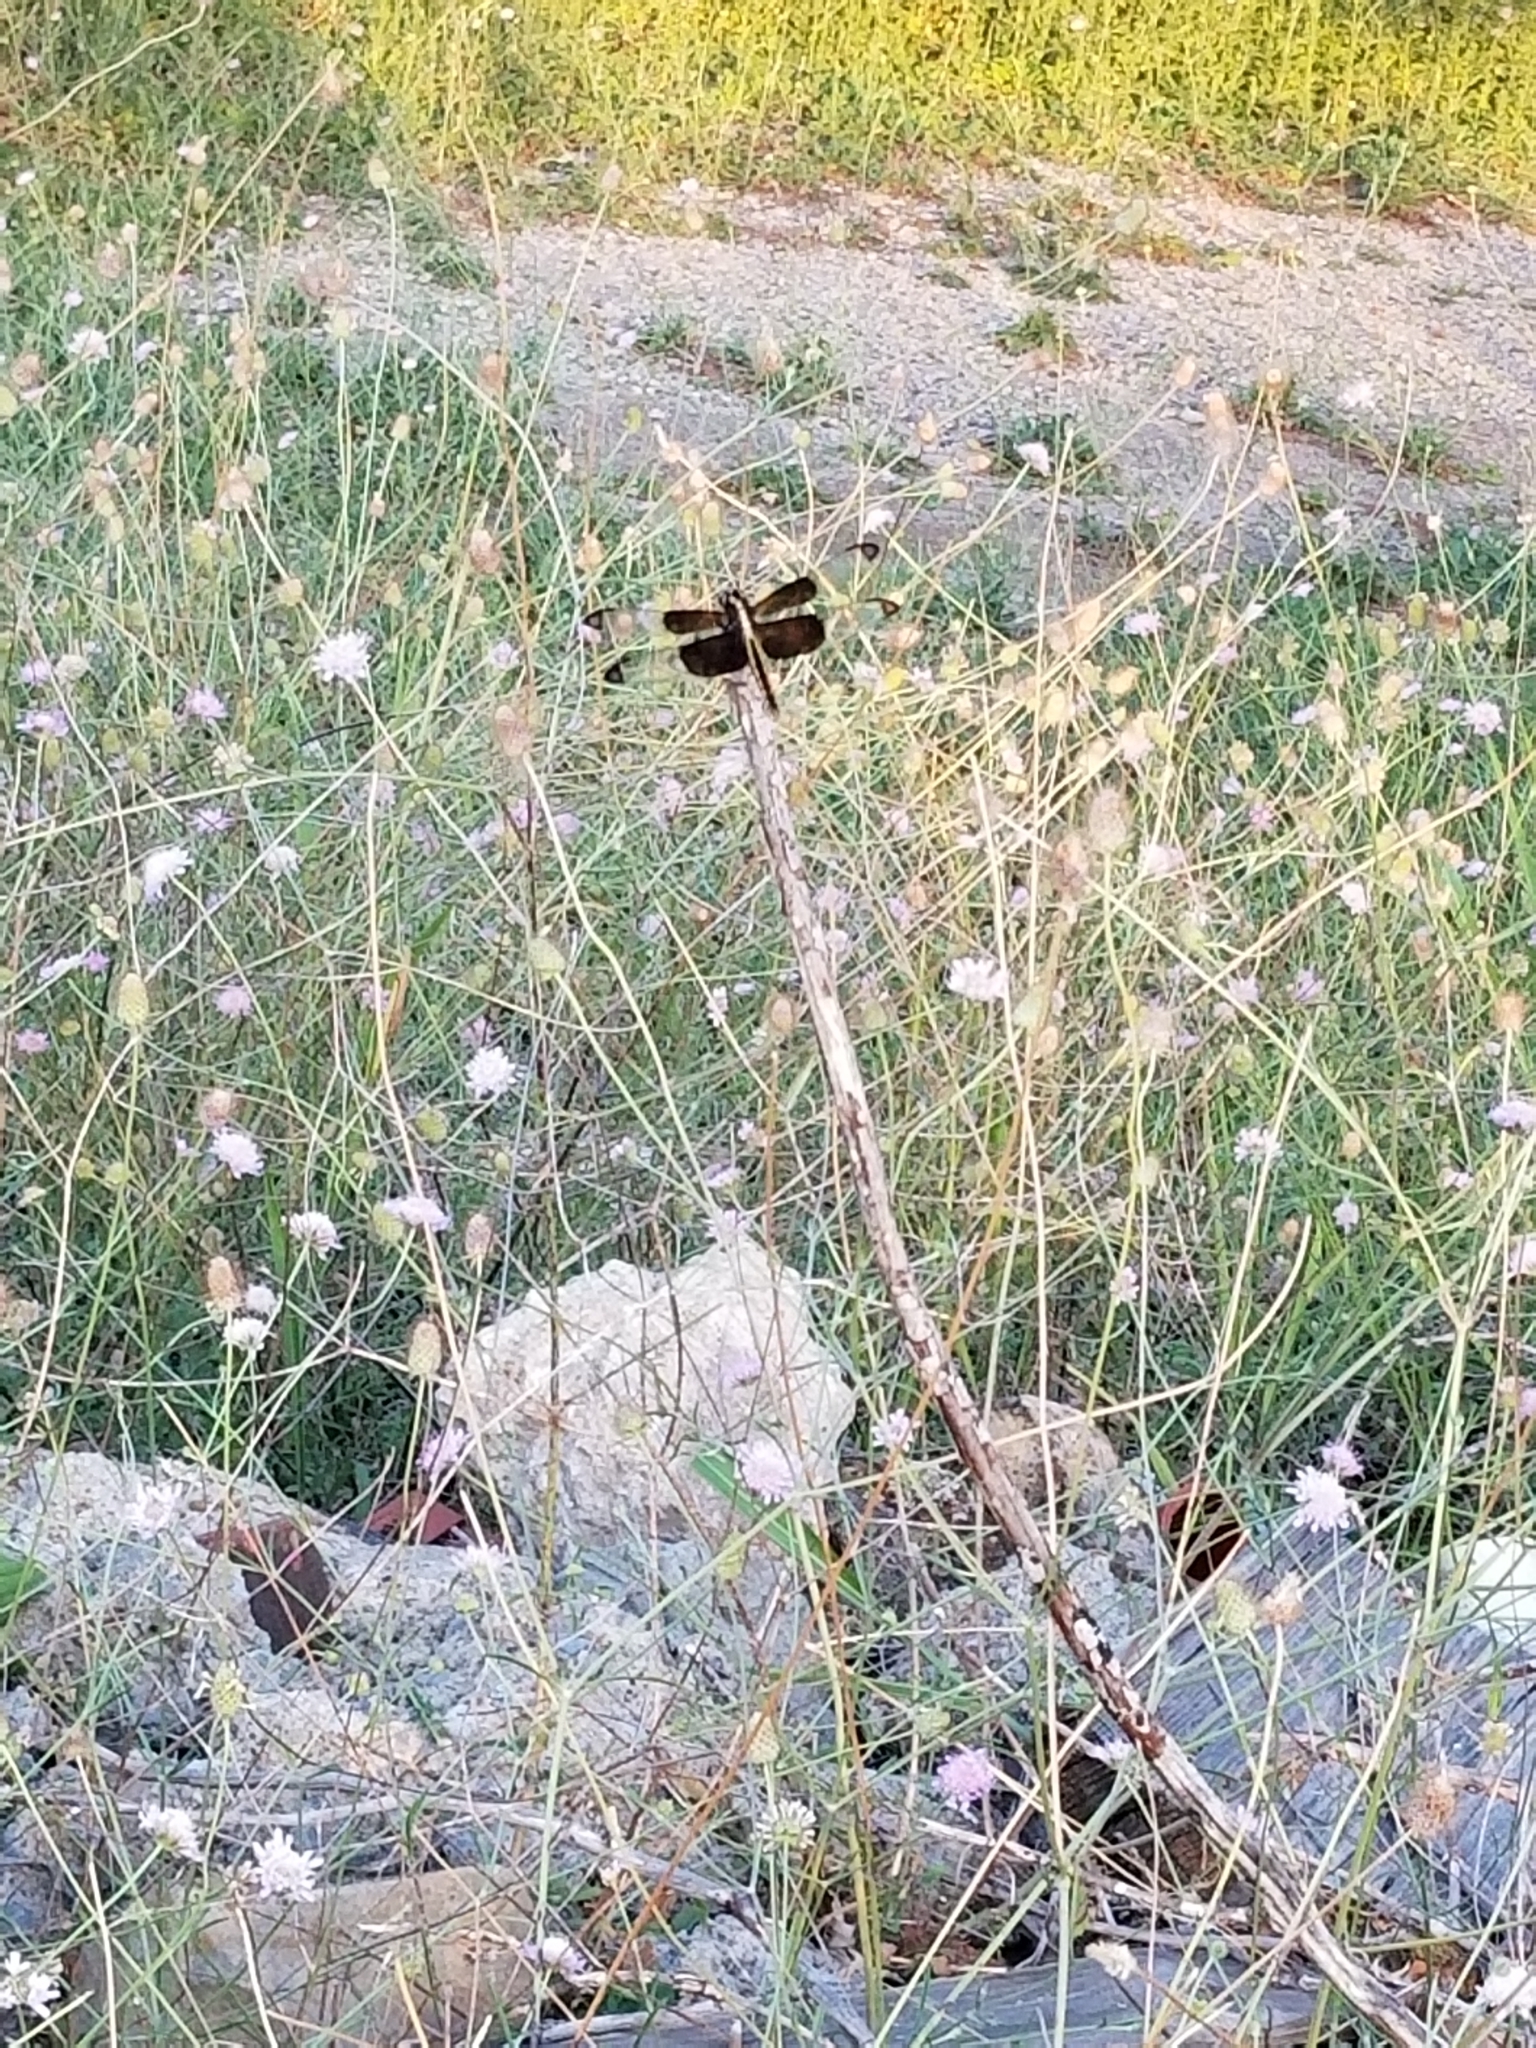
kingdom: Animalia
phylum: Arthropoda
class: Insecta
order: Odonata
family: Libellulidae
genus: Libellula
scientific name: Libellula luctuosa
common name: Widow skimmer
